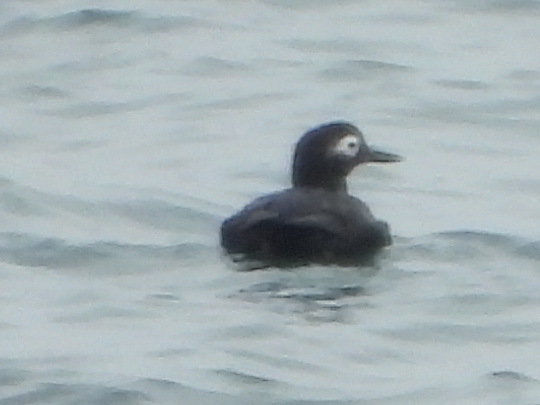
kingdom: Animalia
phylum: Chordata
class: Aves
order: Charadriiformes
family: Alcidae
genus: Cepphus
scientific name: Cepphus carbo
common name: Spectacled guillemot
